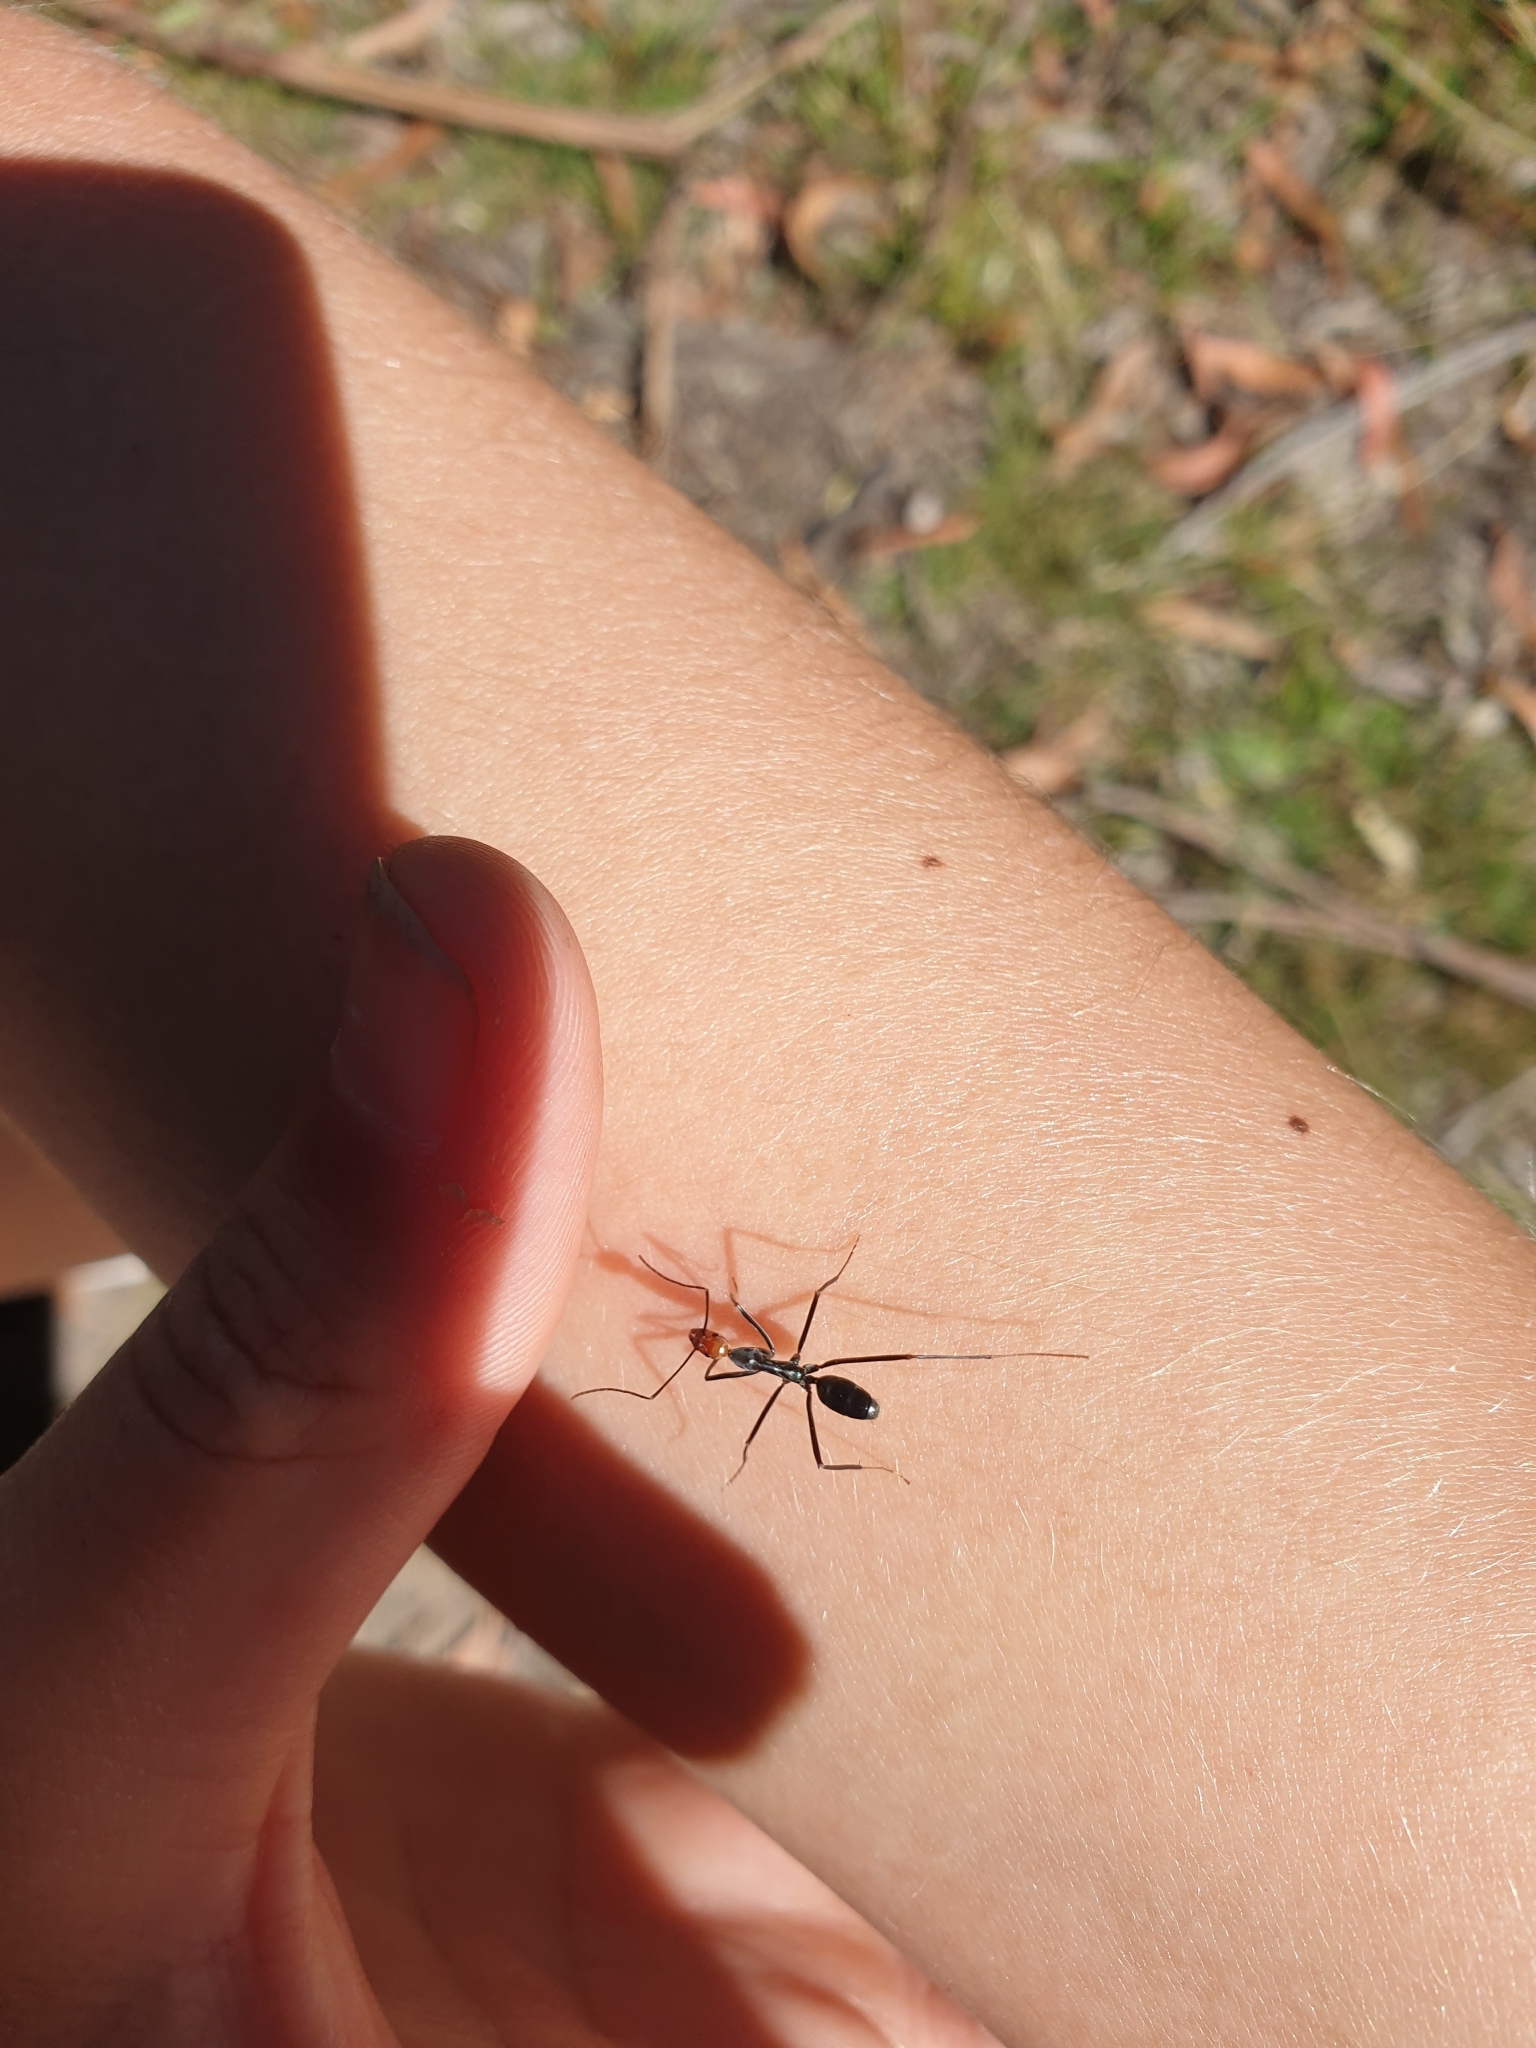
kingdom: Animalia
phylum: Arthropoda
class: Insecta
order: Hymenoptera
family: Formicidae
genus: Leptomyrmex
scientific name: Leptomyrmex erythrocephalus
